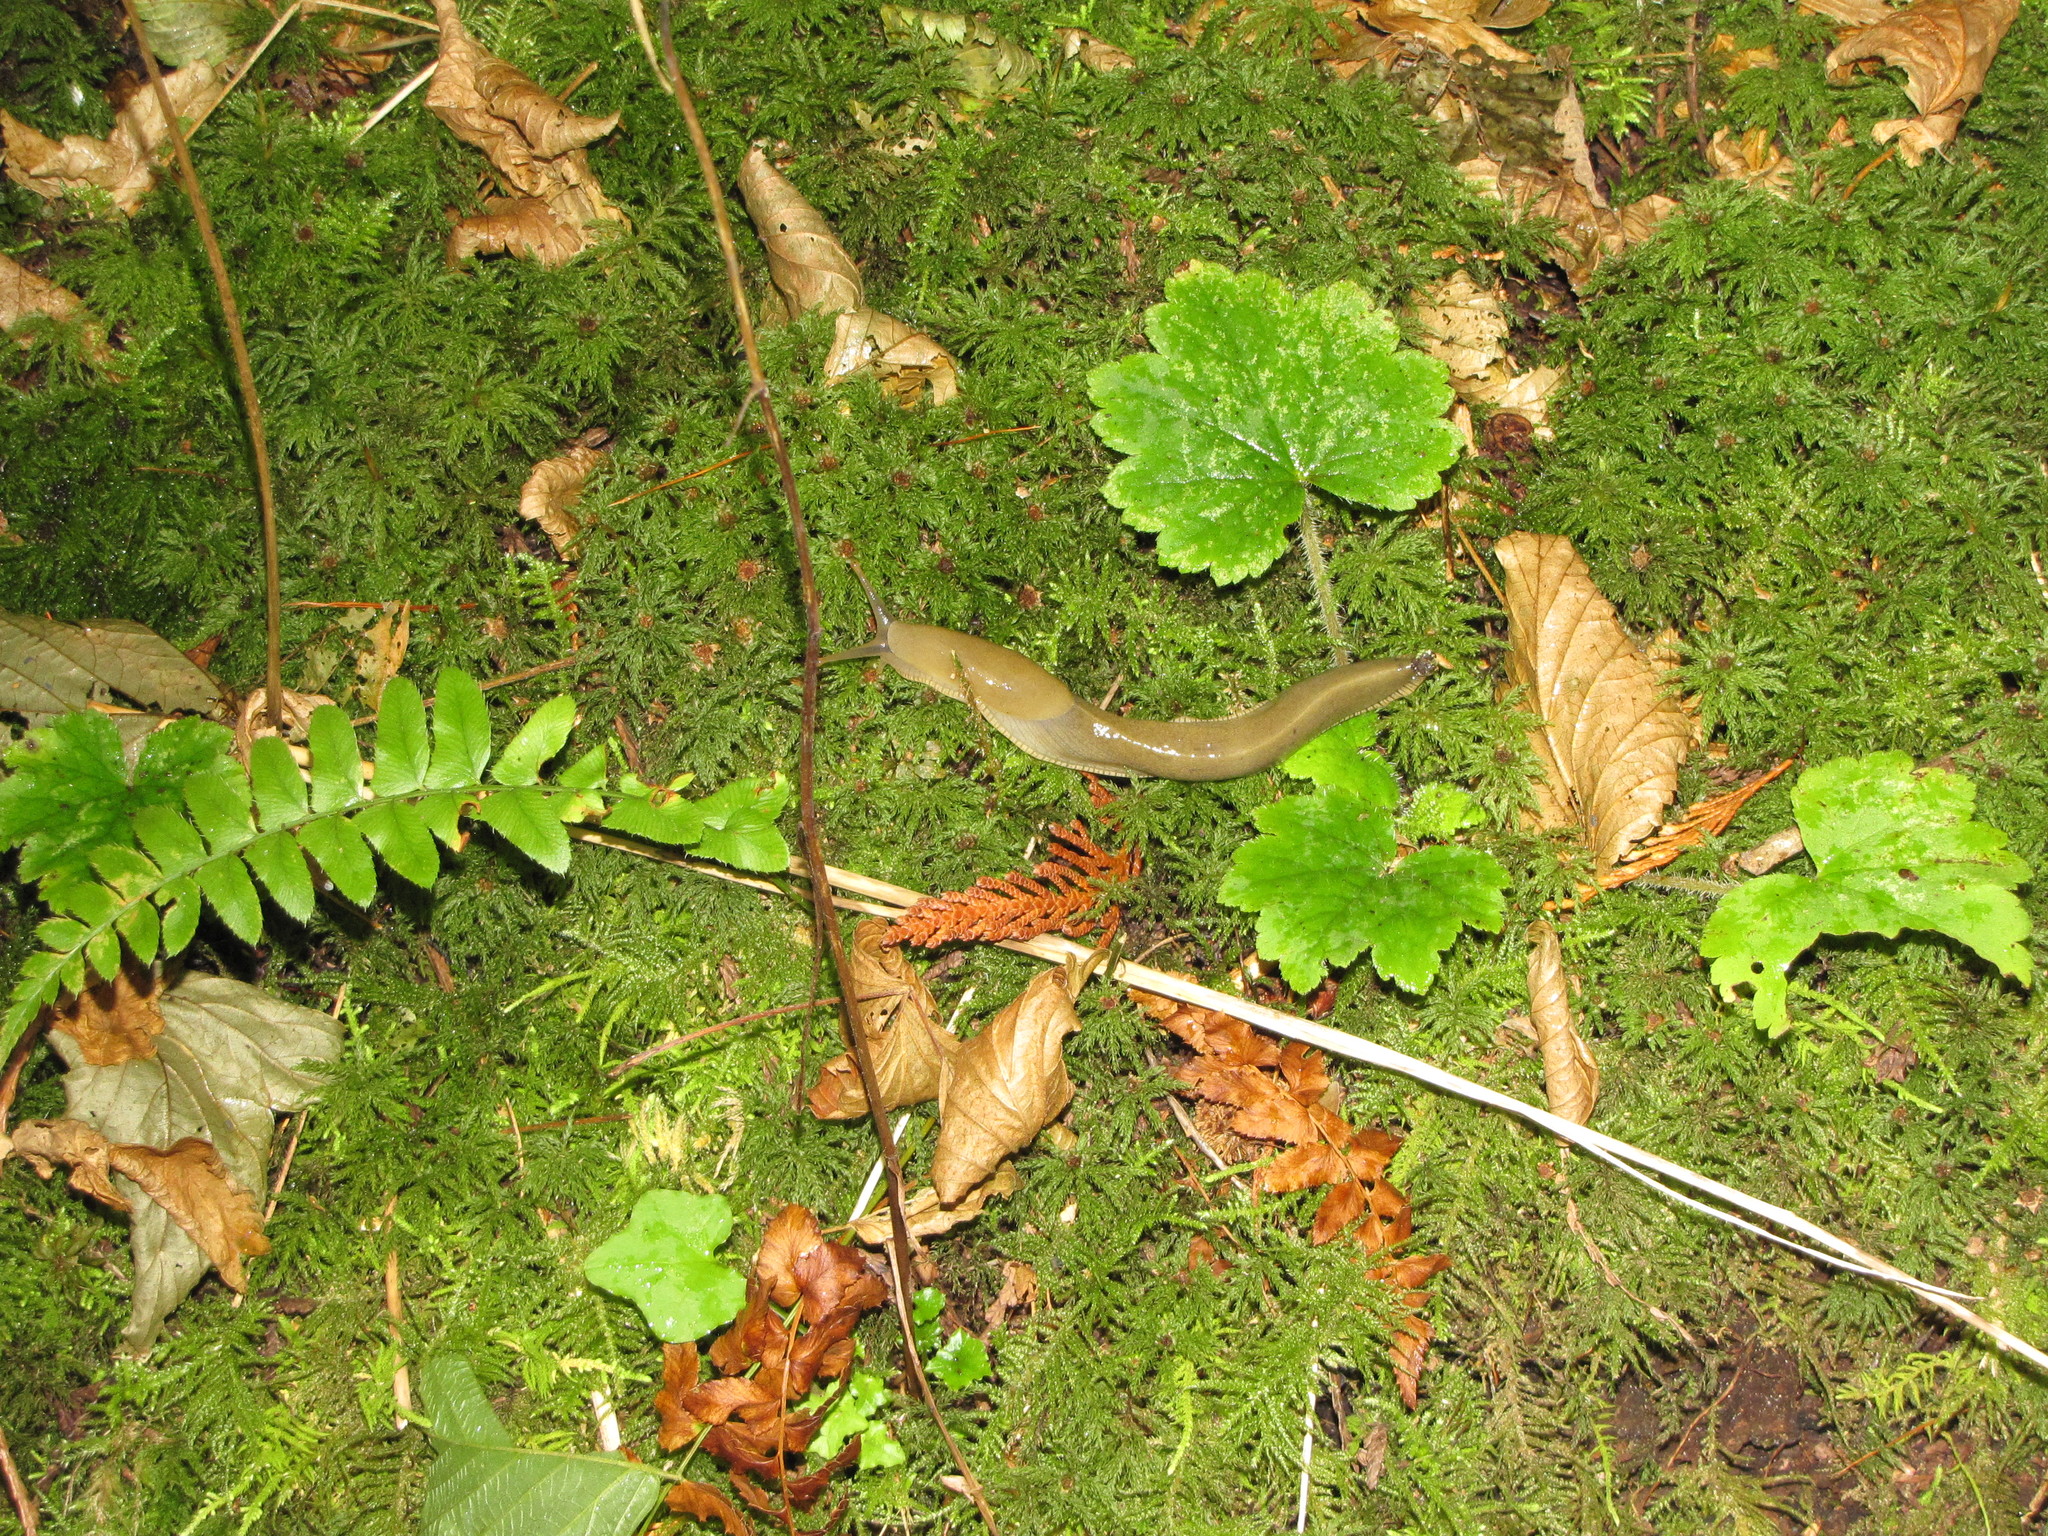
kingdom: Animalia
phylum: Mollusca
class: Gastropoda
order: Stylommatophora
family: Ariolimacidae
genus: Ariolimax
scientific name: Ariolimax columbianus
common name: Pacific banana slug
